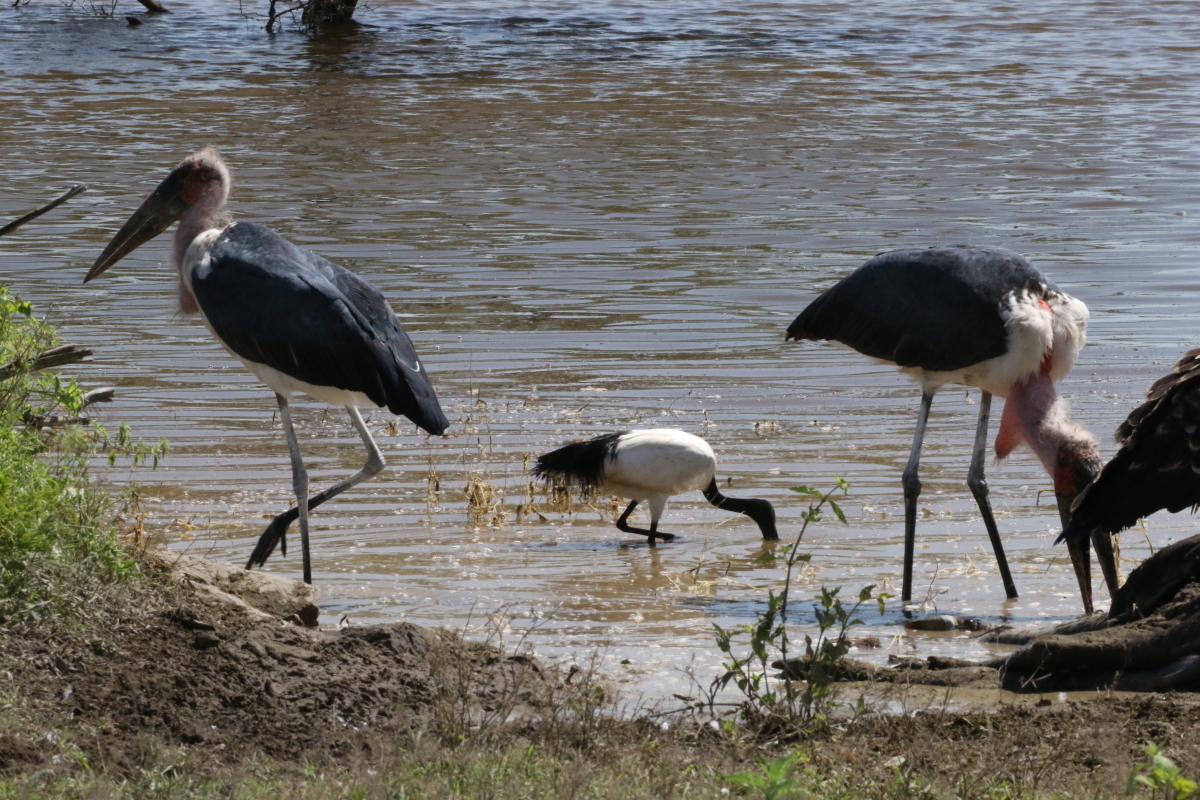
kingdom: Animalia
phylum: Chordata
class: Aves
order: Pelecaniformes
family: Threskiornithidae
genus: Threskiornis
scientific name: Threskiornis aethiopicus
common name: Sacred ibis
